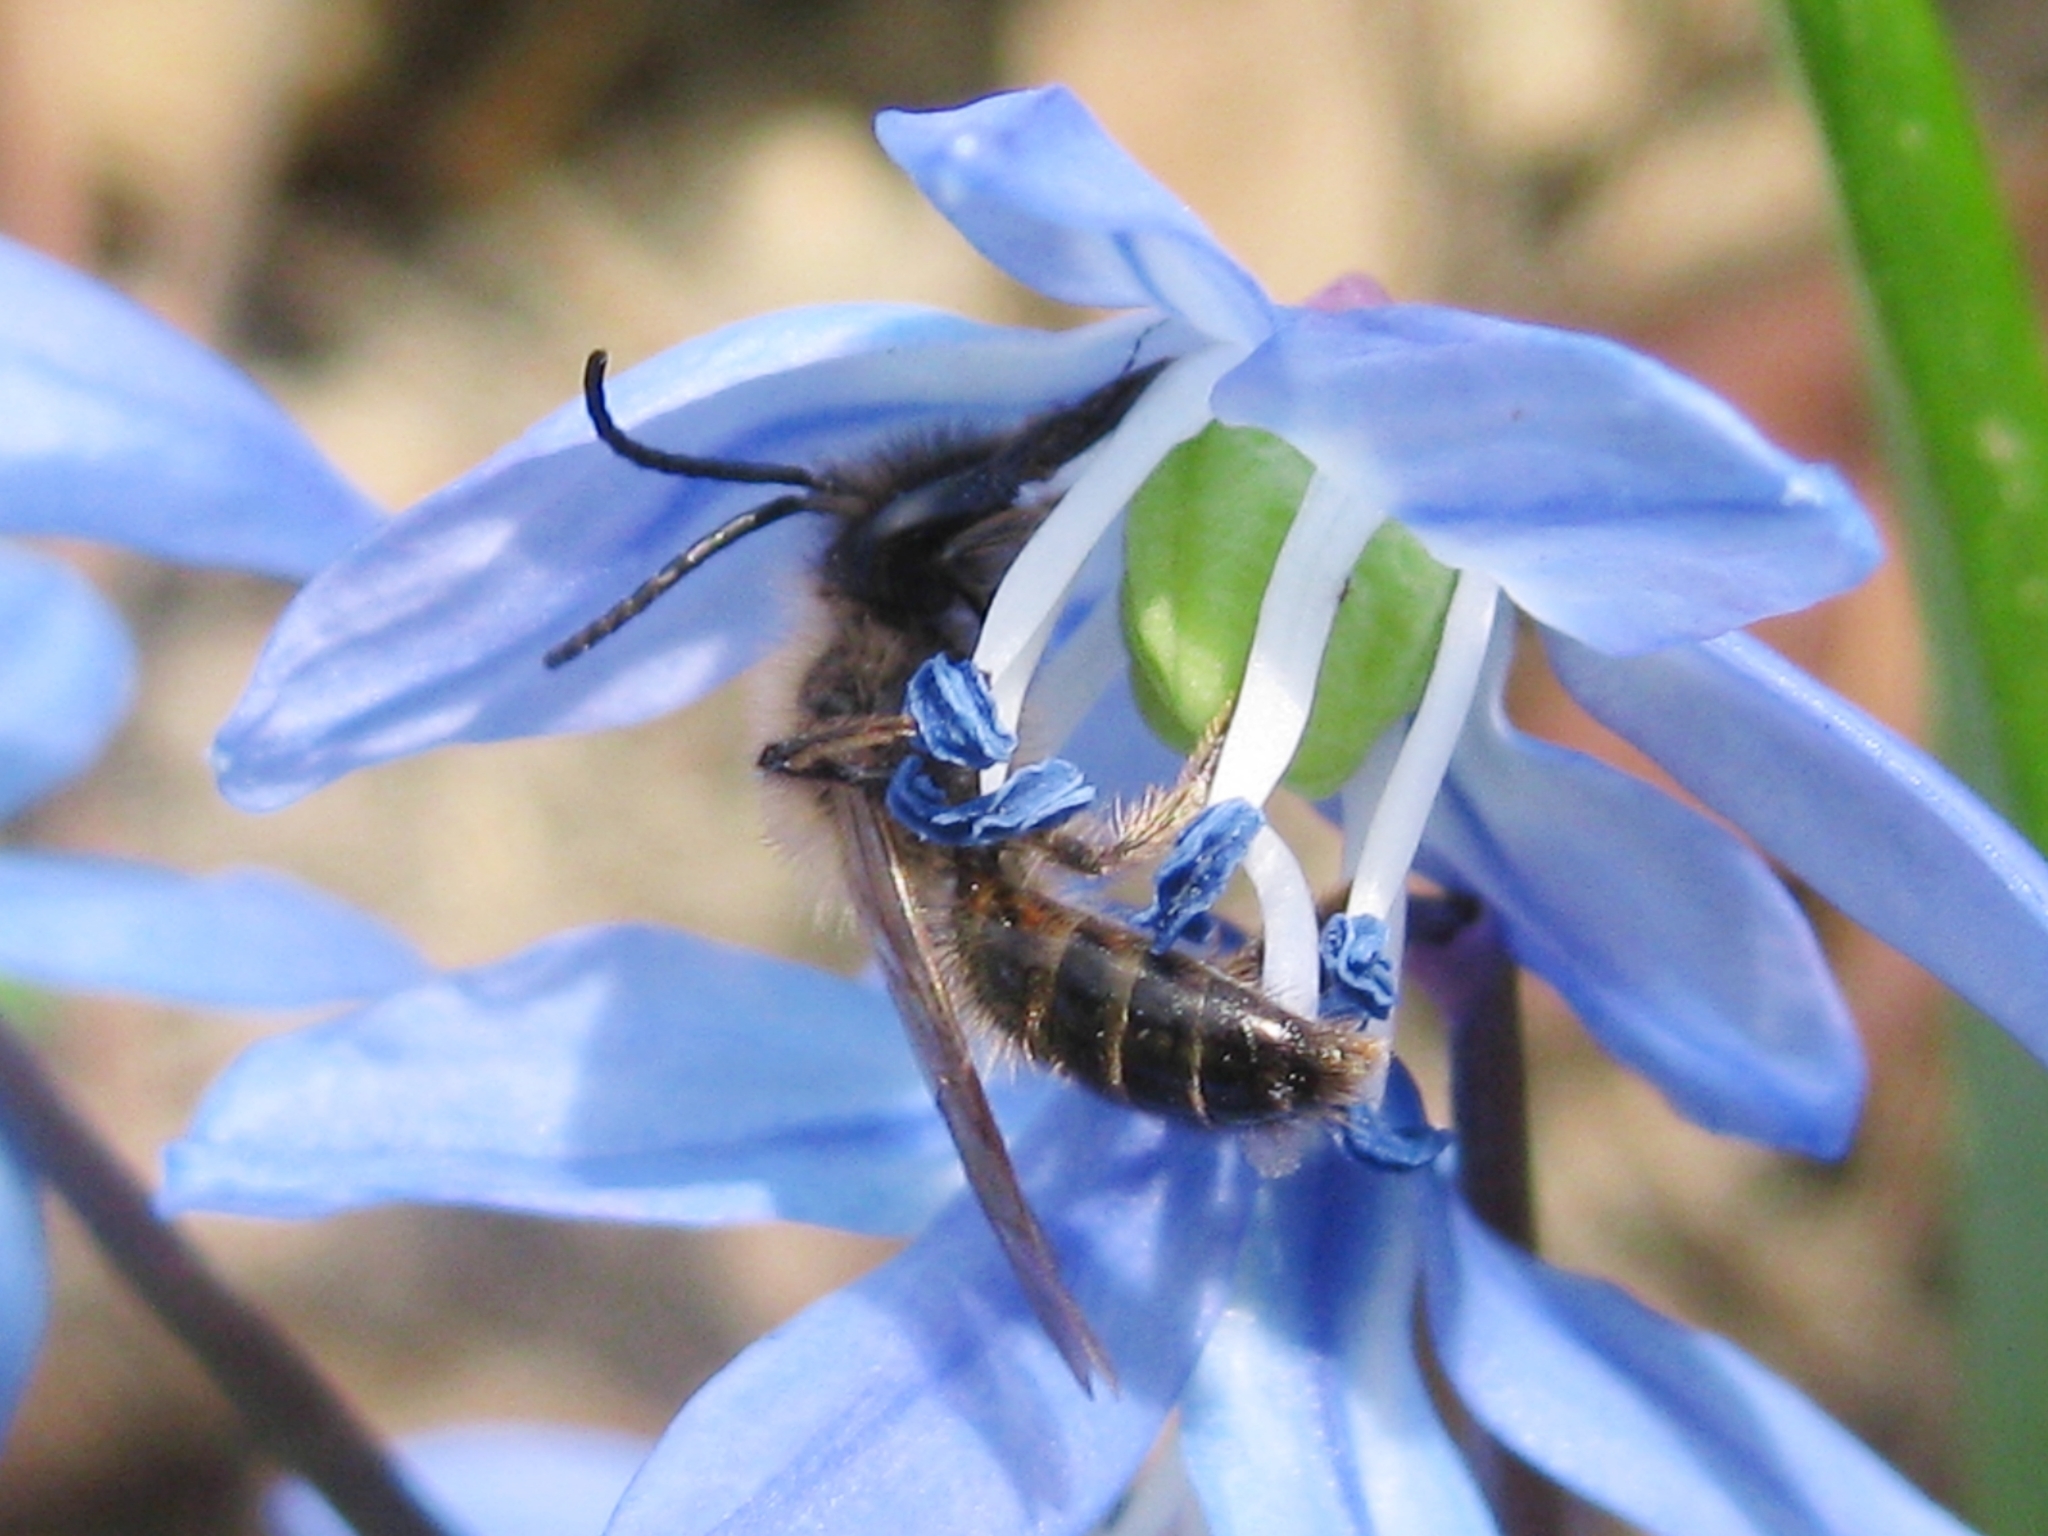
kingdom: Animalia
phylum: Arthropoda
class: Insecta
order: Hymenoptera
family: Andrenidae
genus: Andrena
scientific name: Andrena
